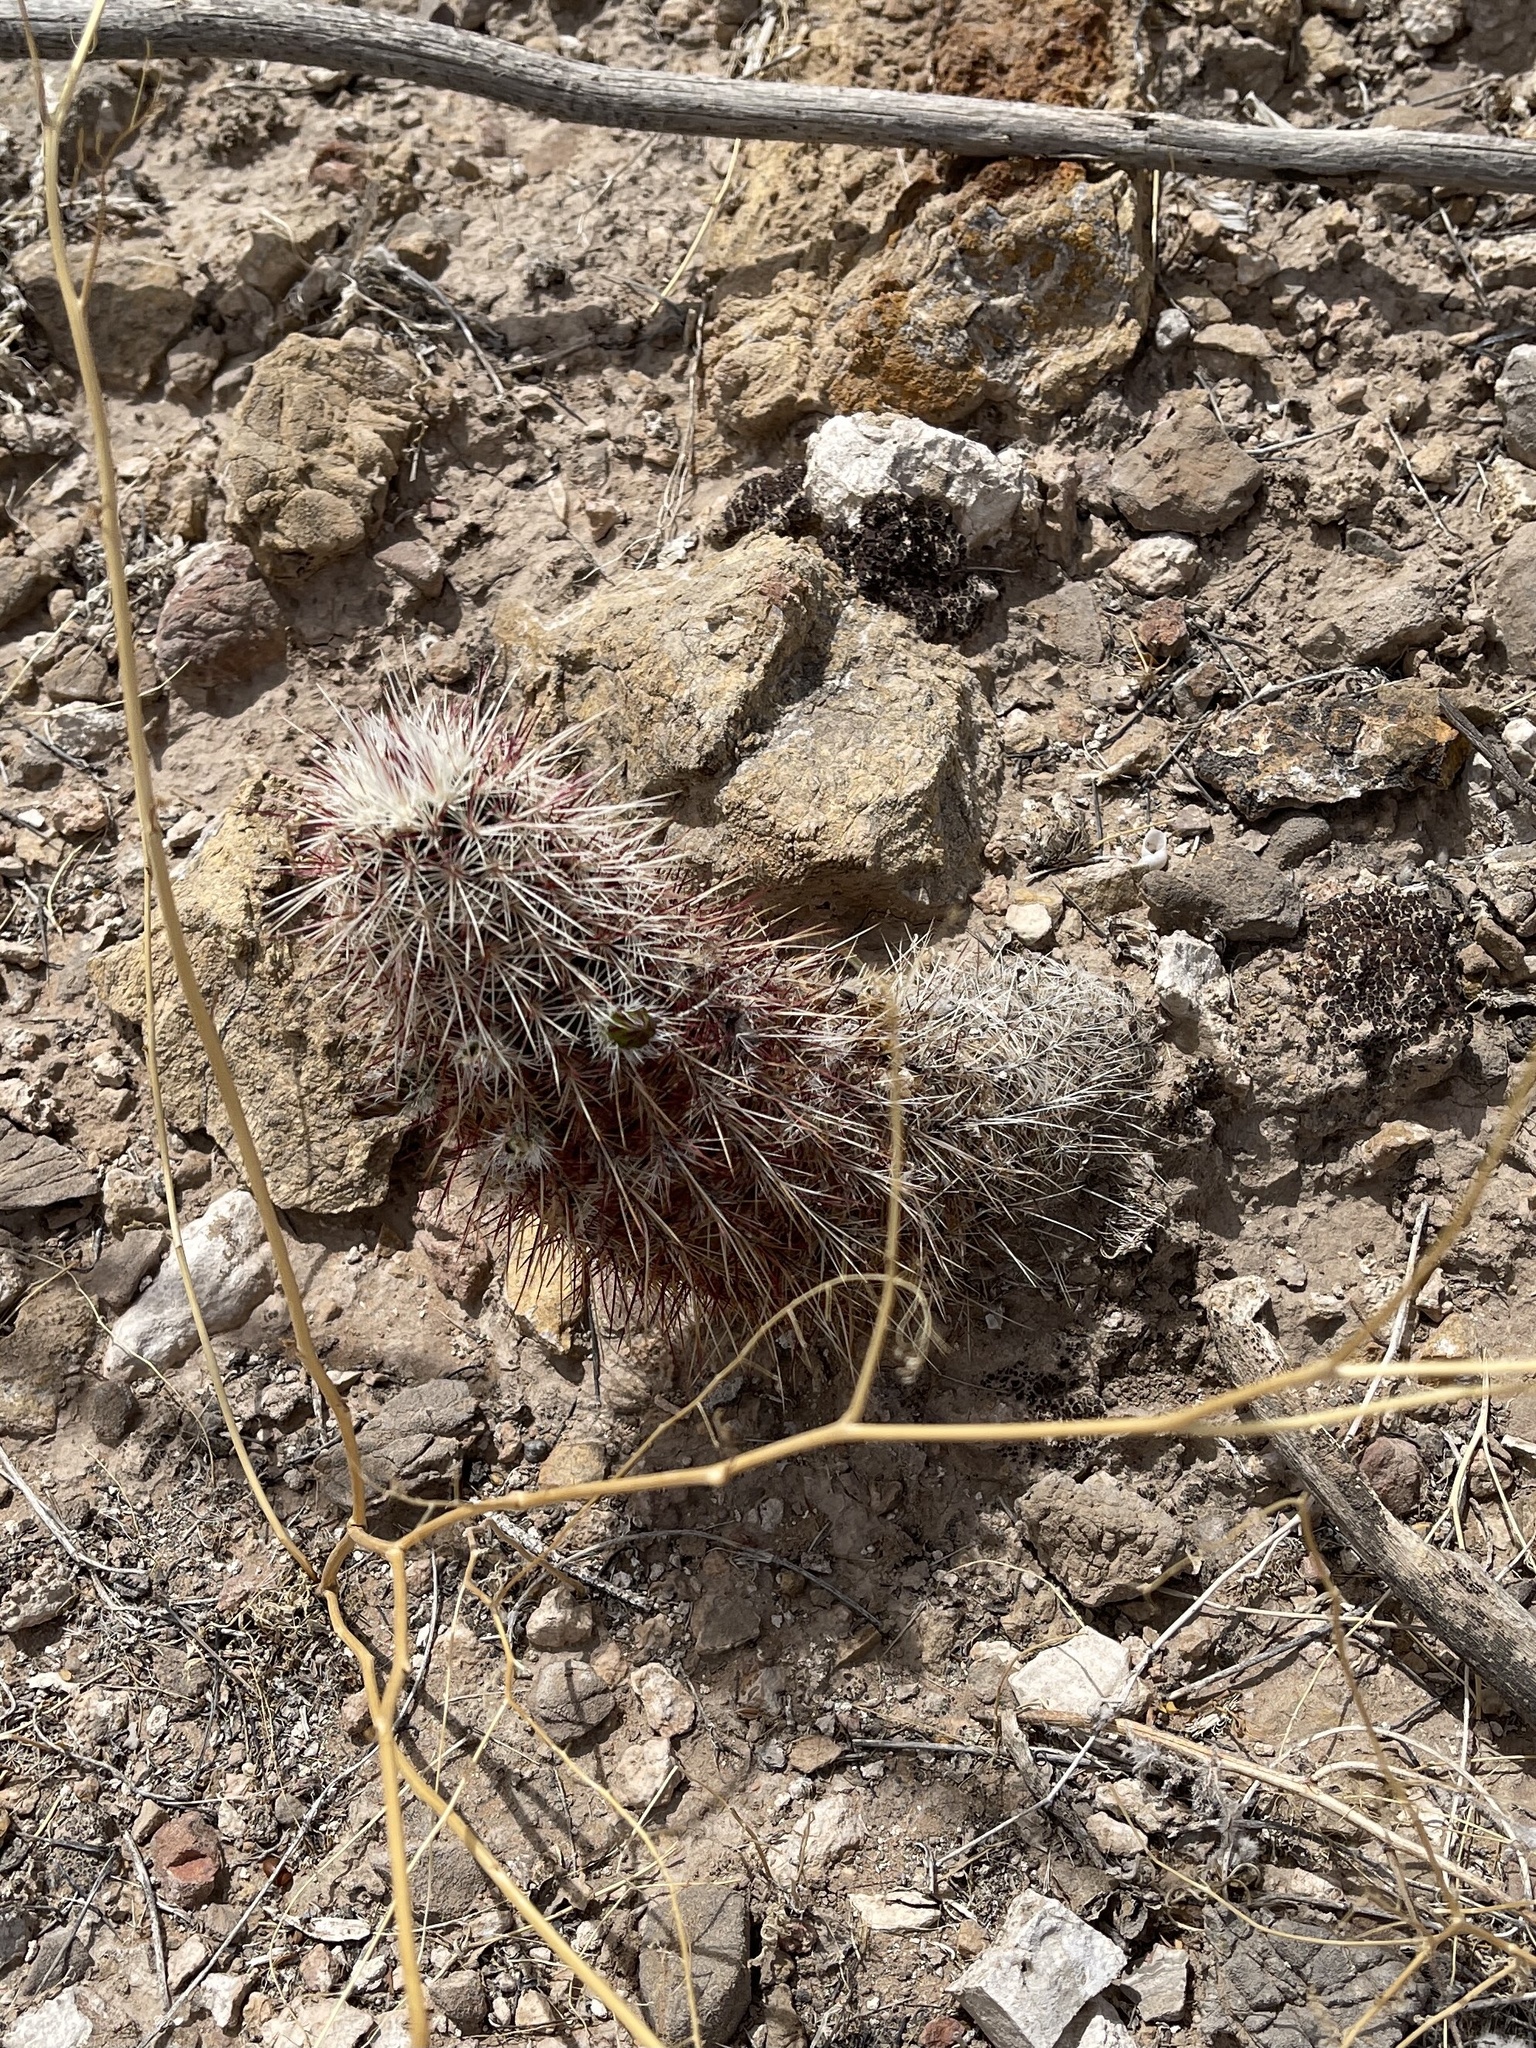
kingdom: Plantae
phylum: Tracheophyta
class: Magnoliopsida
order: Caryophyllales
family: Cactaceae
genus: Echinocereus
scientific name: Echinocereus viridiflorus
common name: Nylon hedgehog cactus
